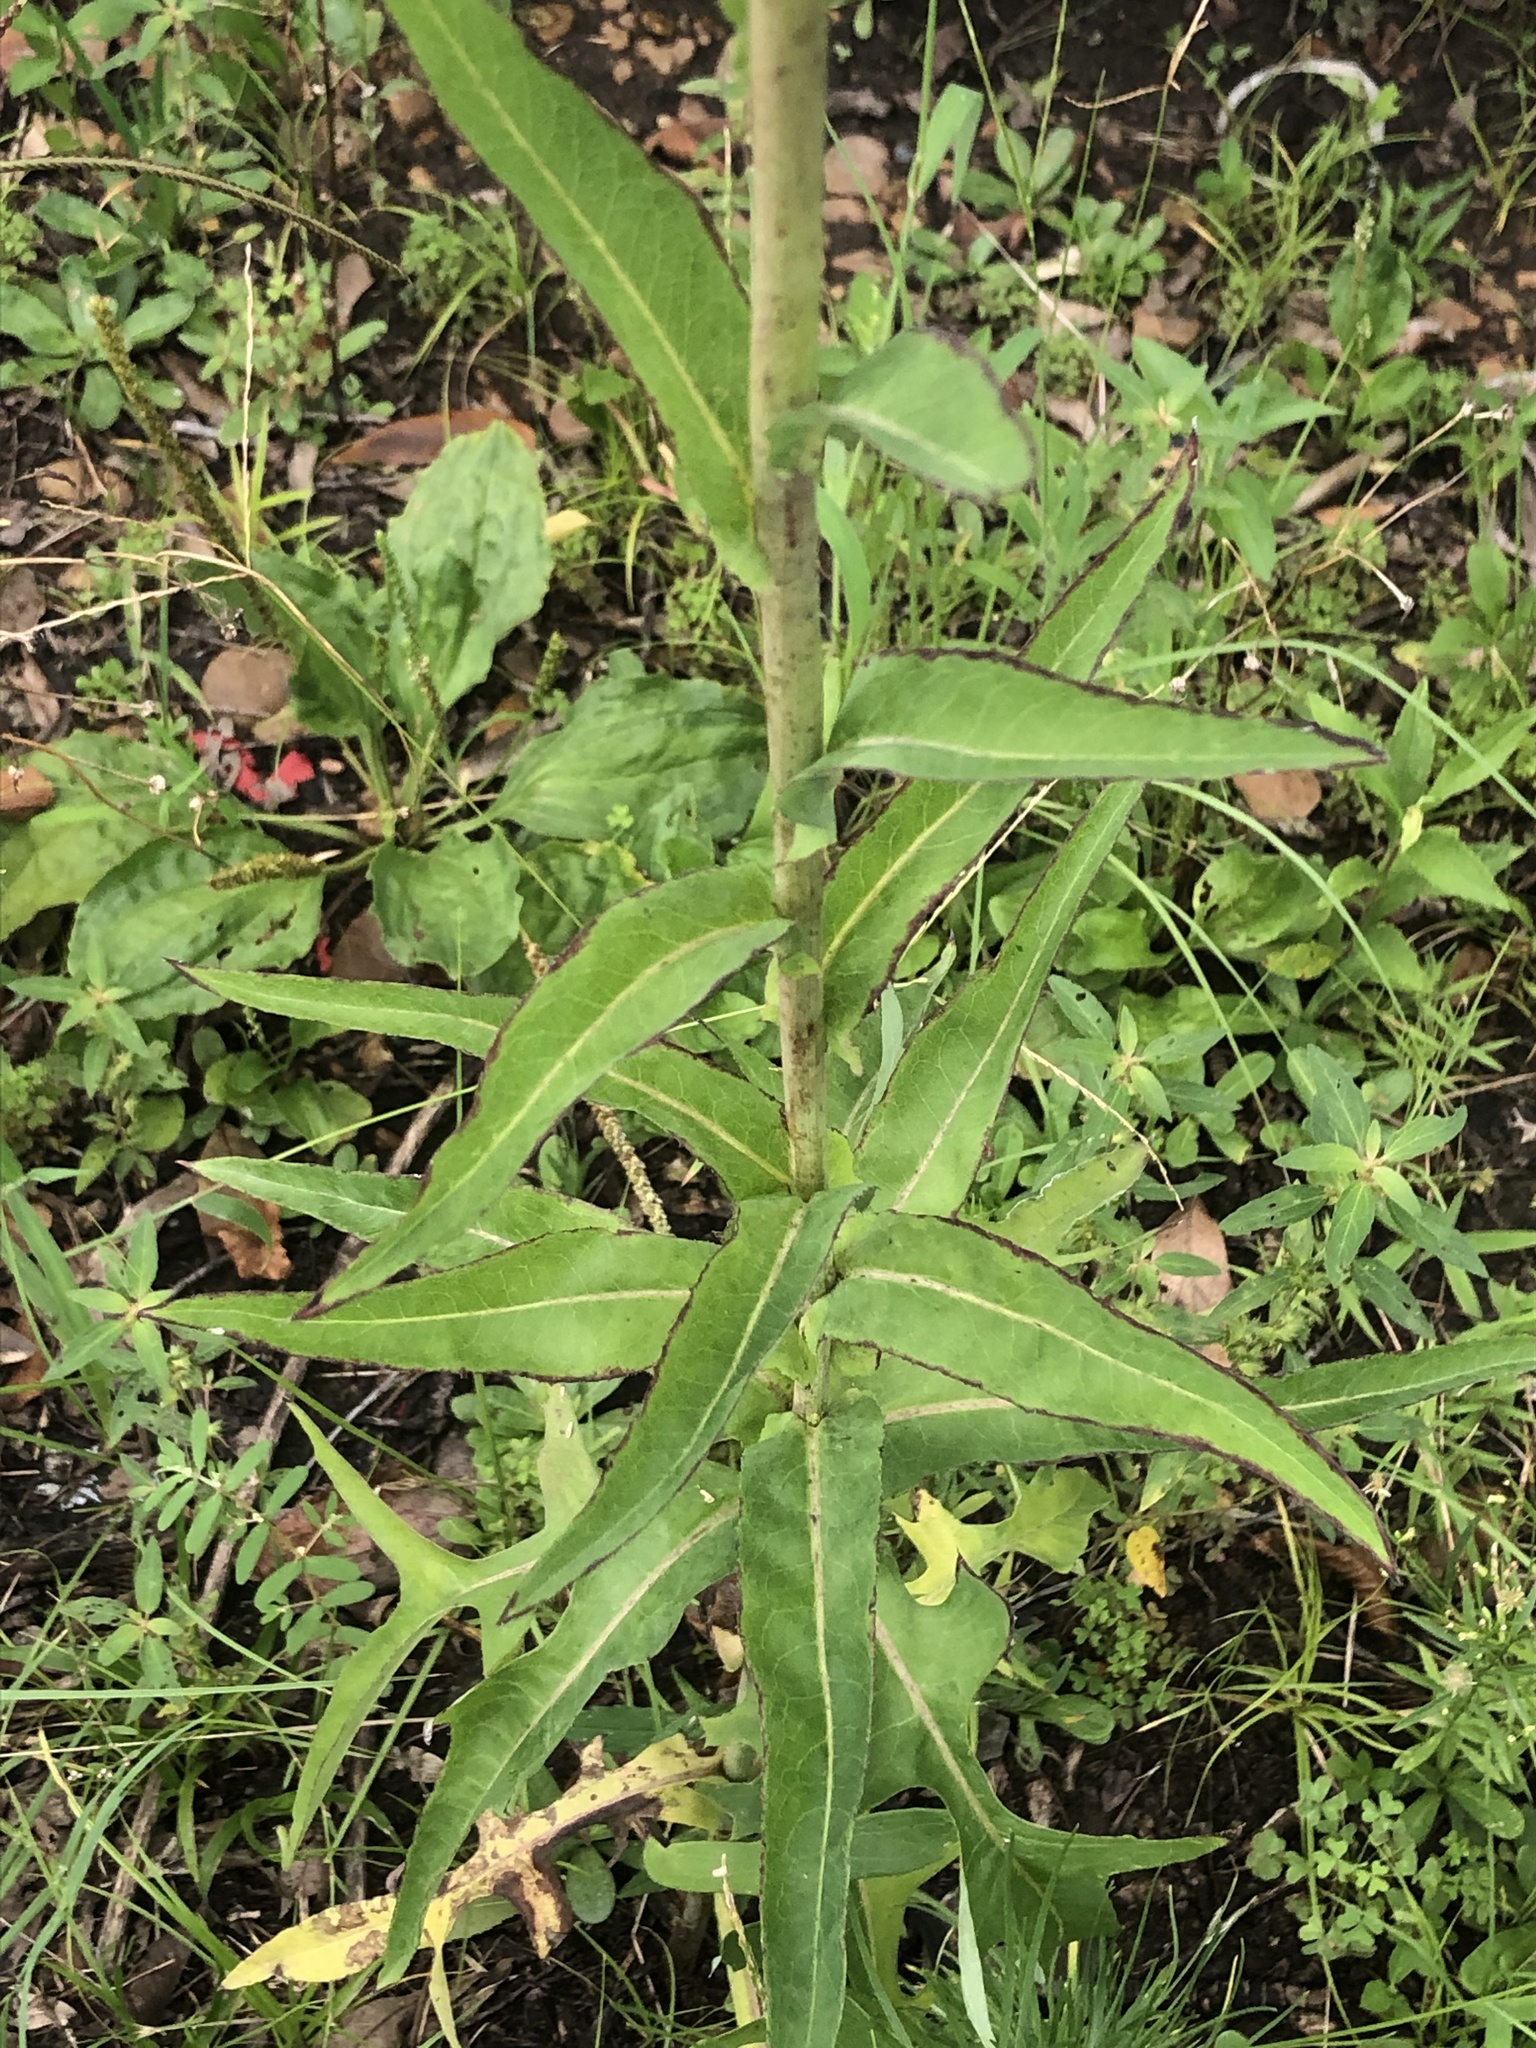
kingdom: Plantae
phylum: Tracheophyta
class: Magnoliopsida
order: Asterales
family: Asteraceae
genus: Lactuca
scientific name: Lactuca canadensis
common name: Canada lettuce
